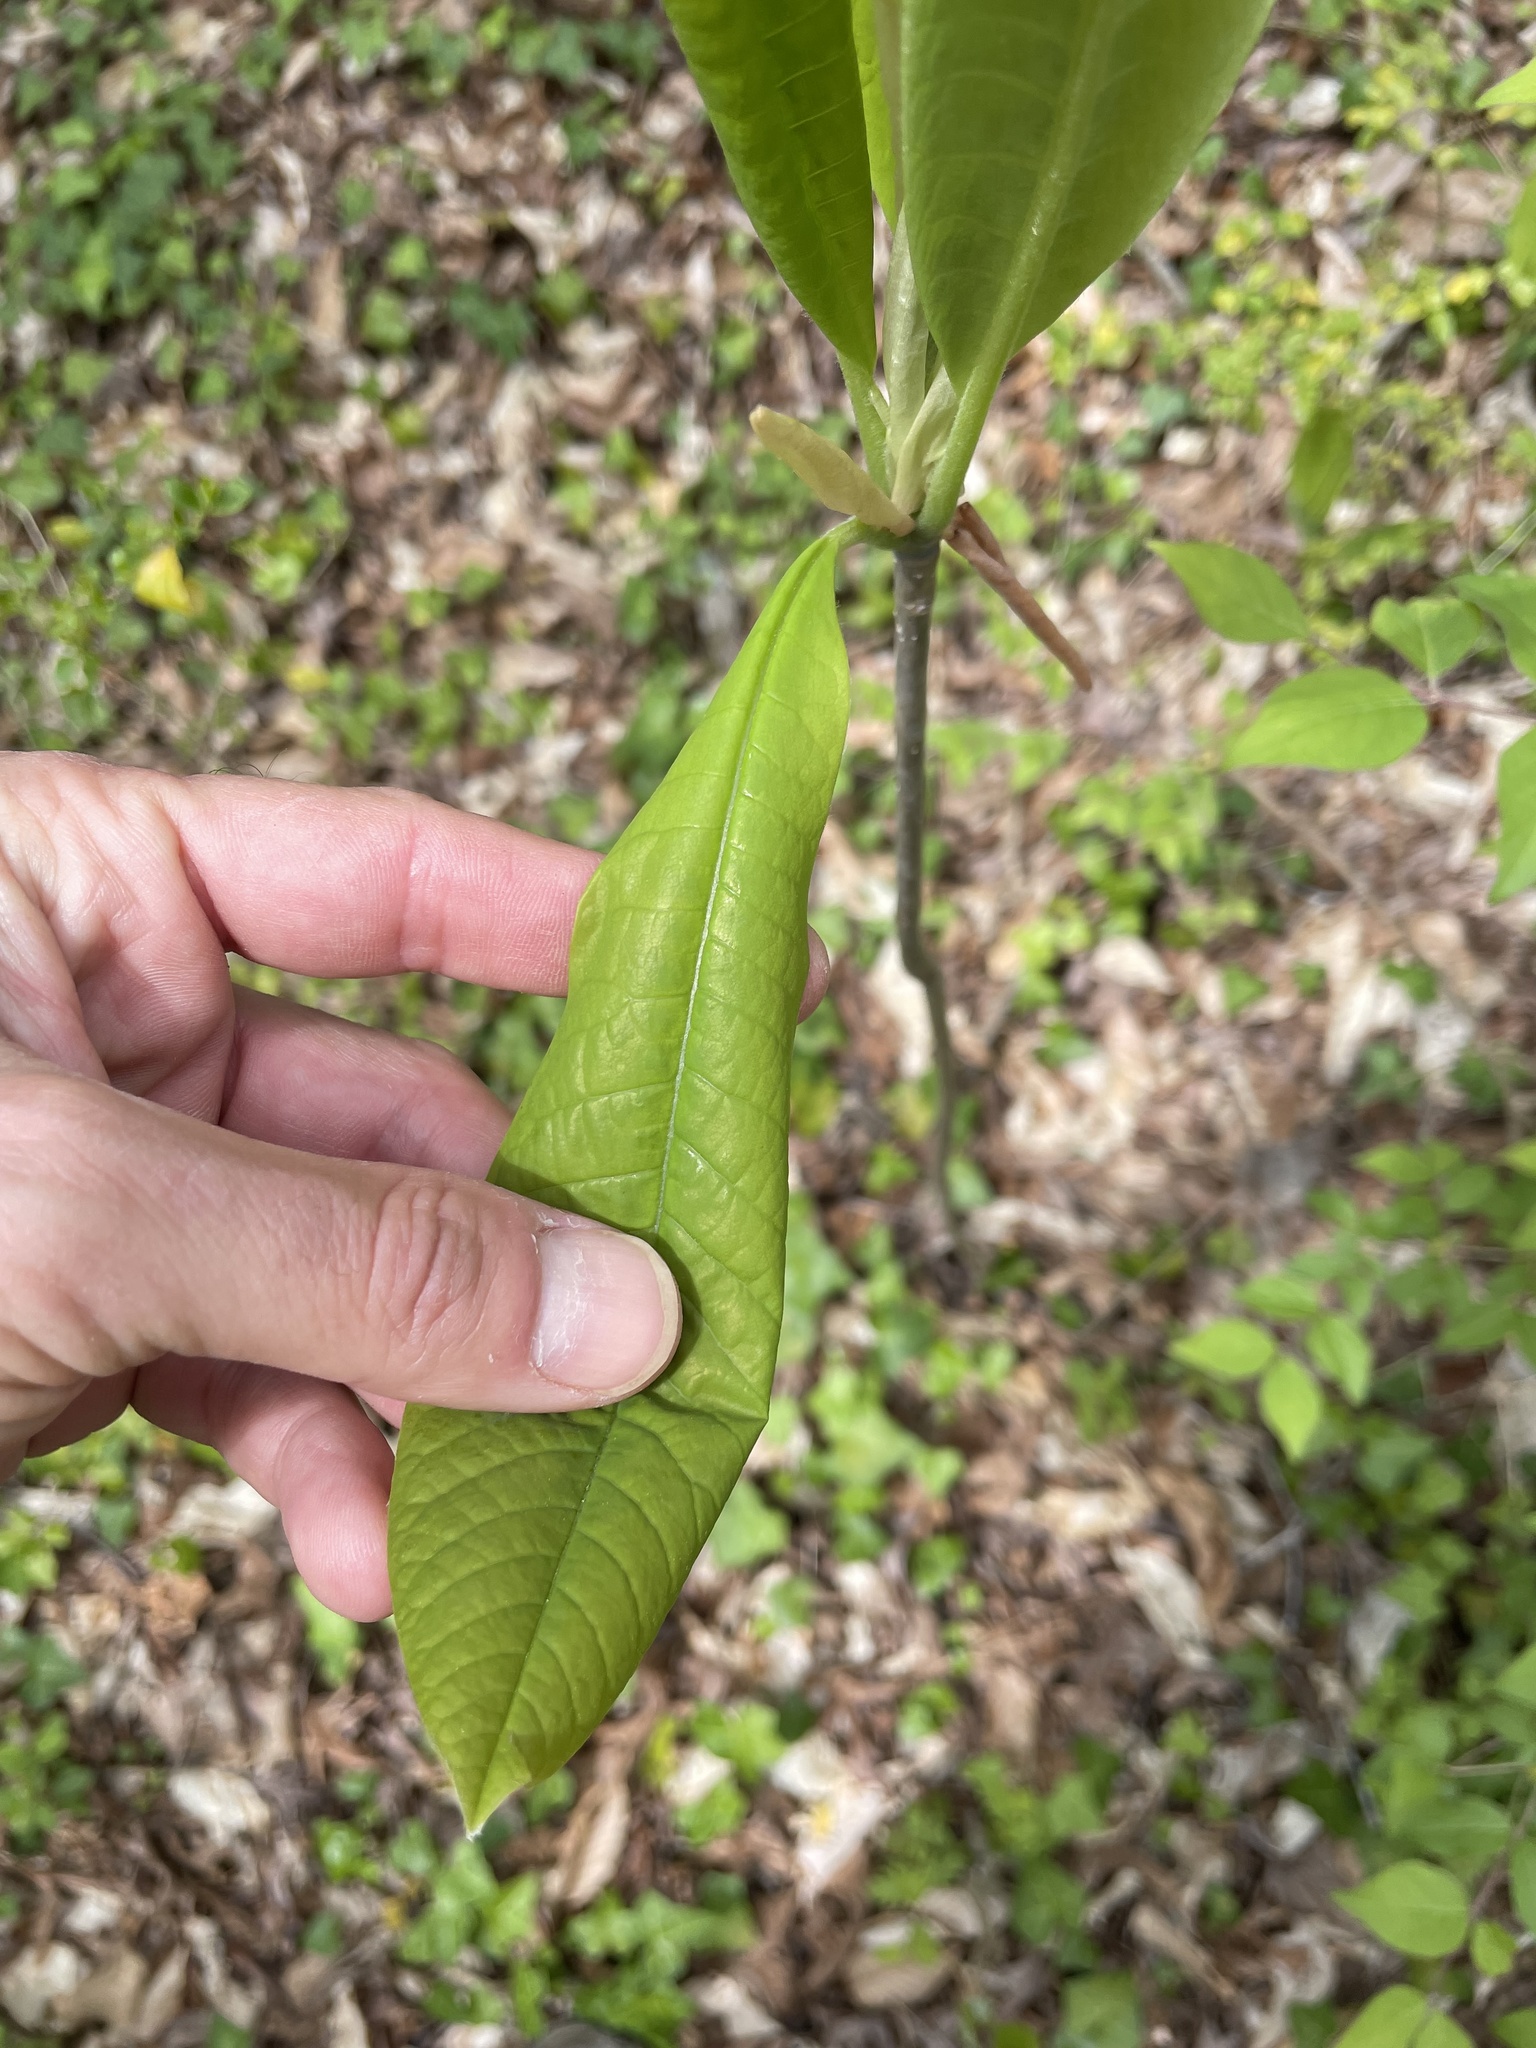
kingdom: Plantae
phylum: Tracheophyta
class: Magnoliopsida
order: Magnoliales
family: Magnoliaceae
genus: Magnolia
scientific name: Magnolia tripetala
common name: Umbrella magnolia
